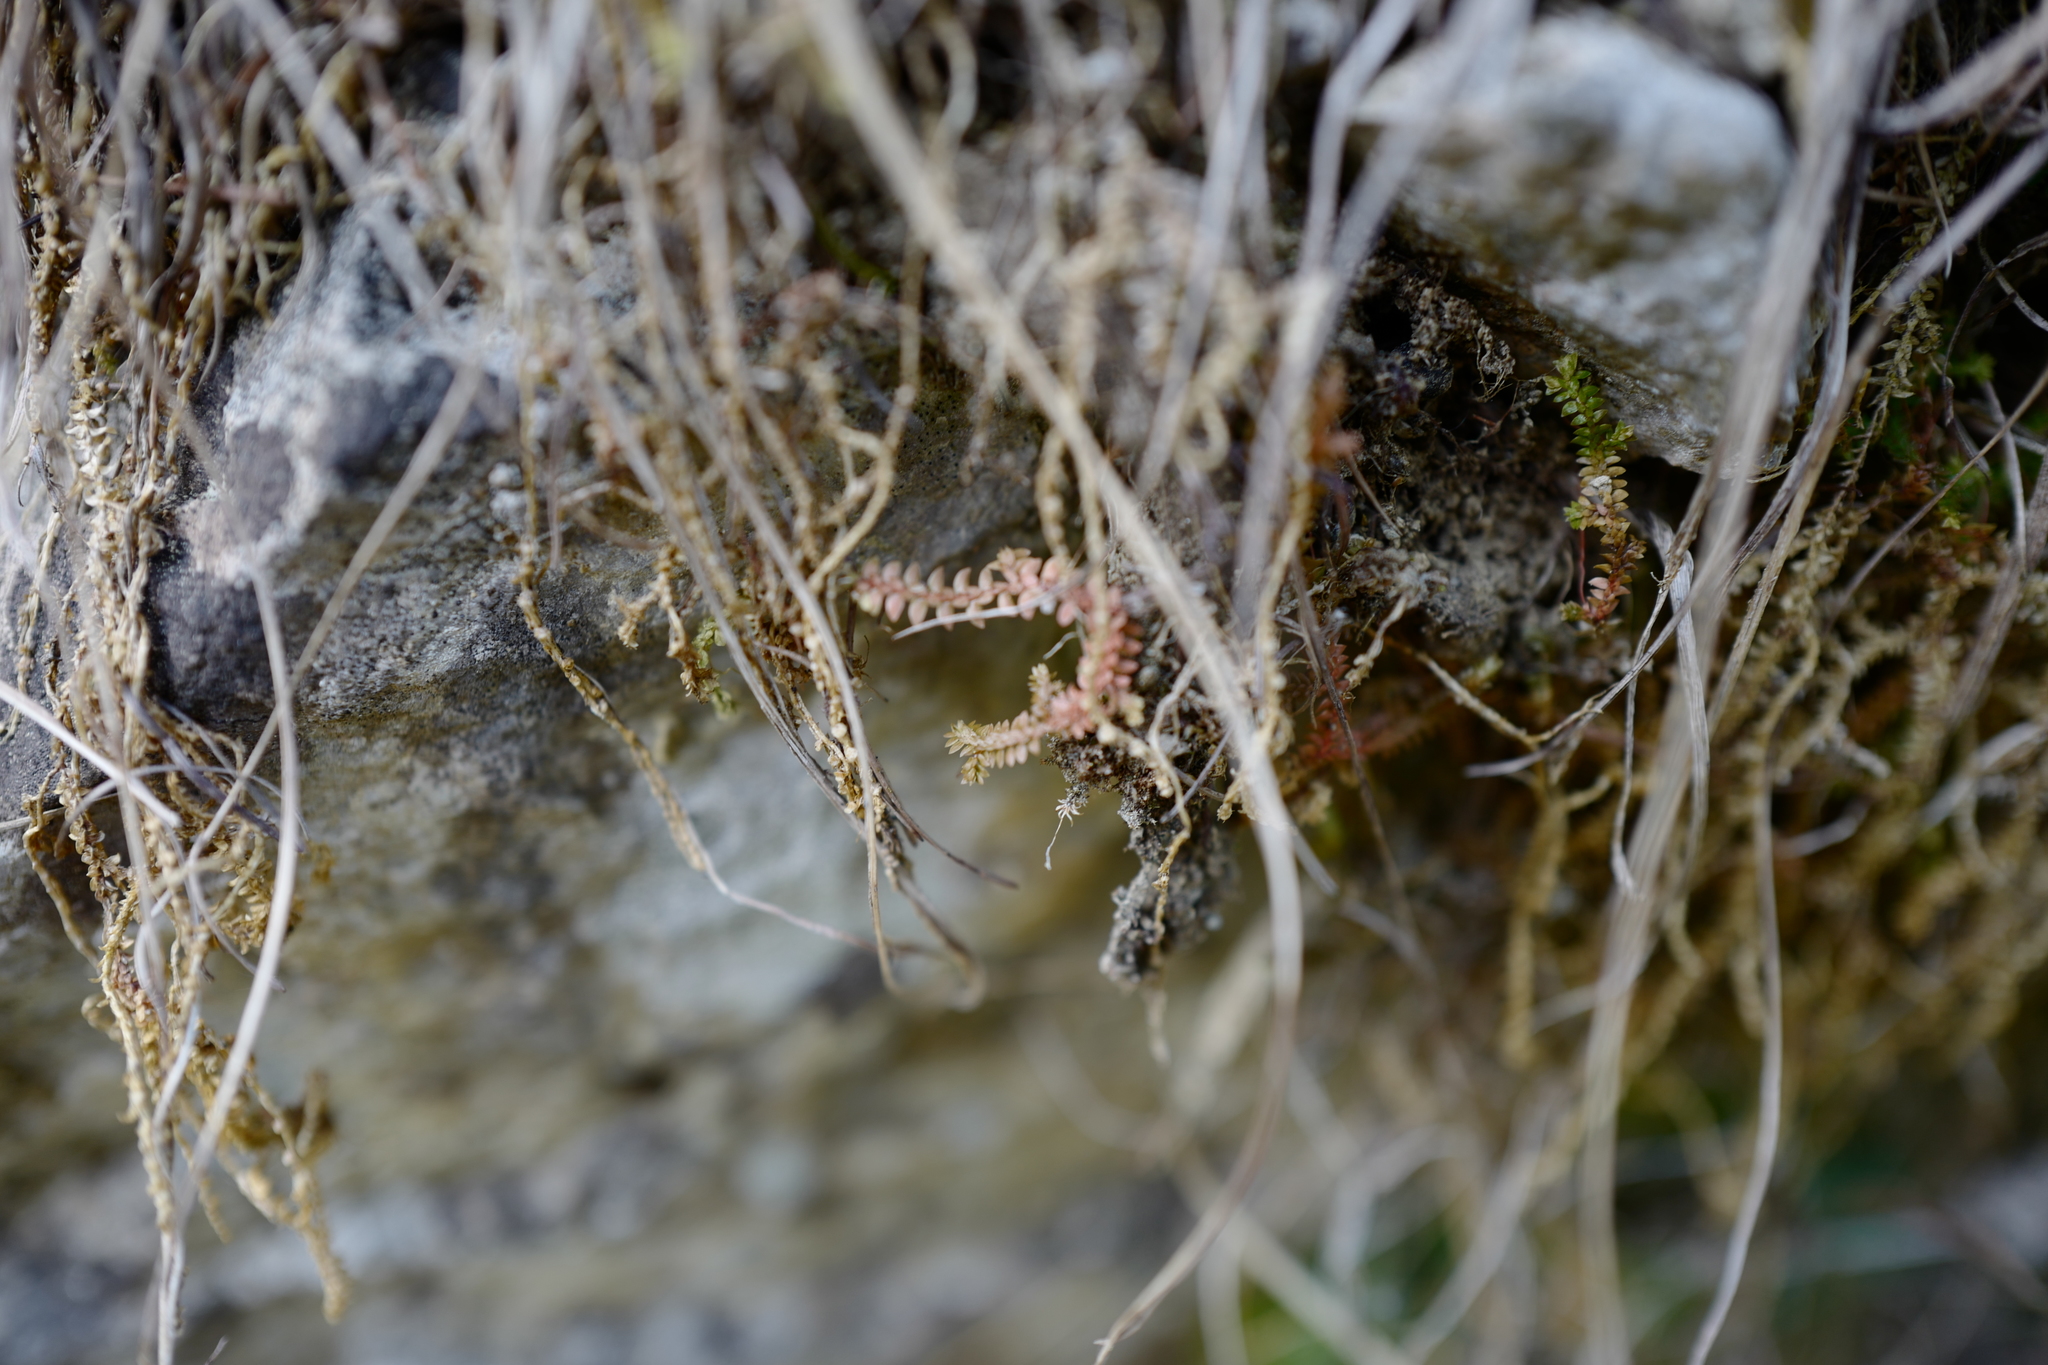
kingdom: Plantae
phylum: Tracheophyta
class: Lycopodiopsida
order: Selaginellales
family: Selaginellaceae
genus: Selaginella
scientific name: Selaginella helvetica
